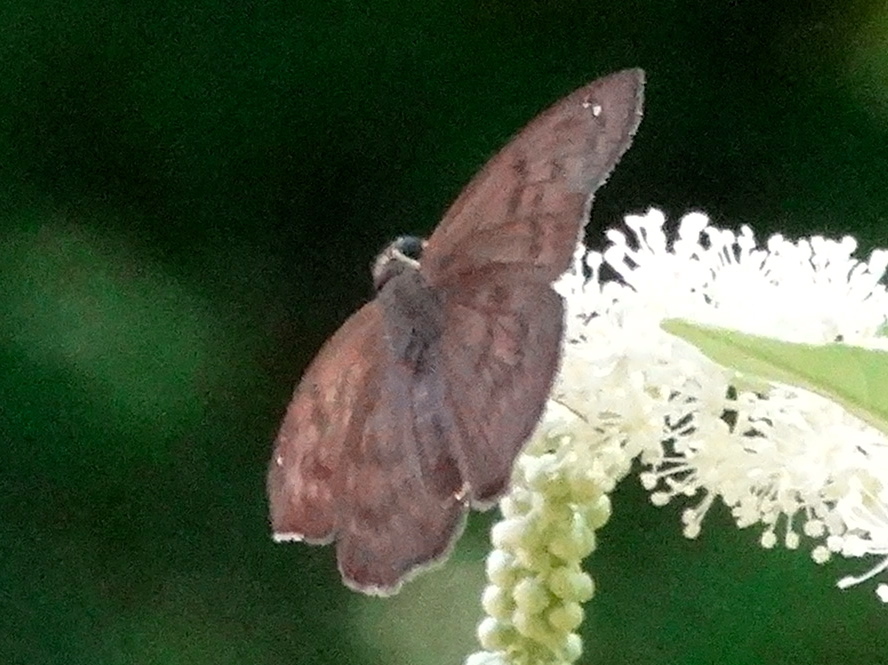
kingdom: Animalia
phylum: Arthropoda
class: Insecta
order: Lepidoptera
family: Hesperiidae
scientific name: Hesperiidae
